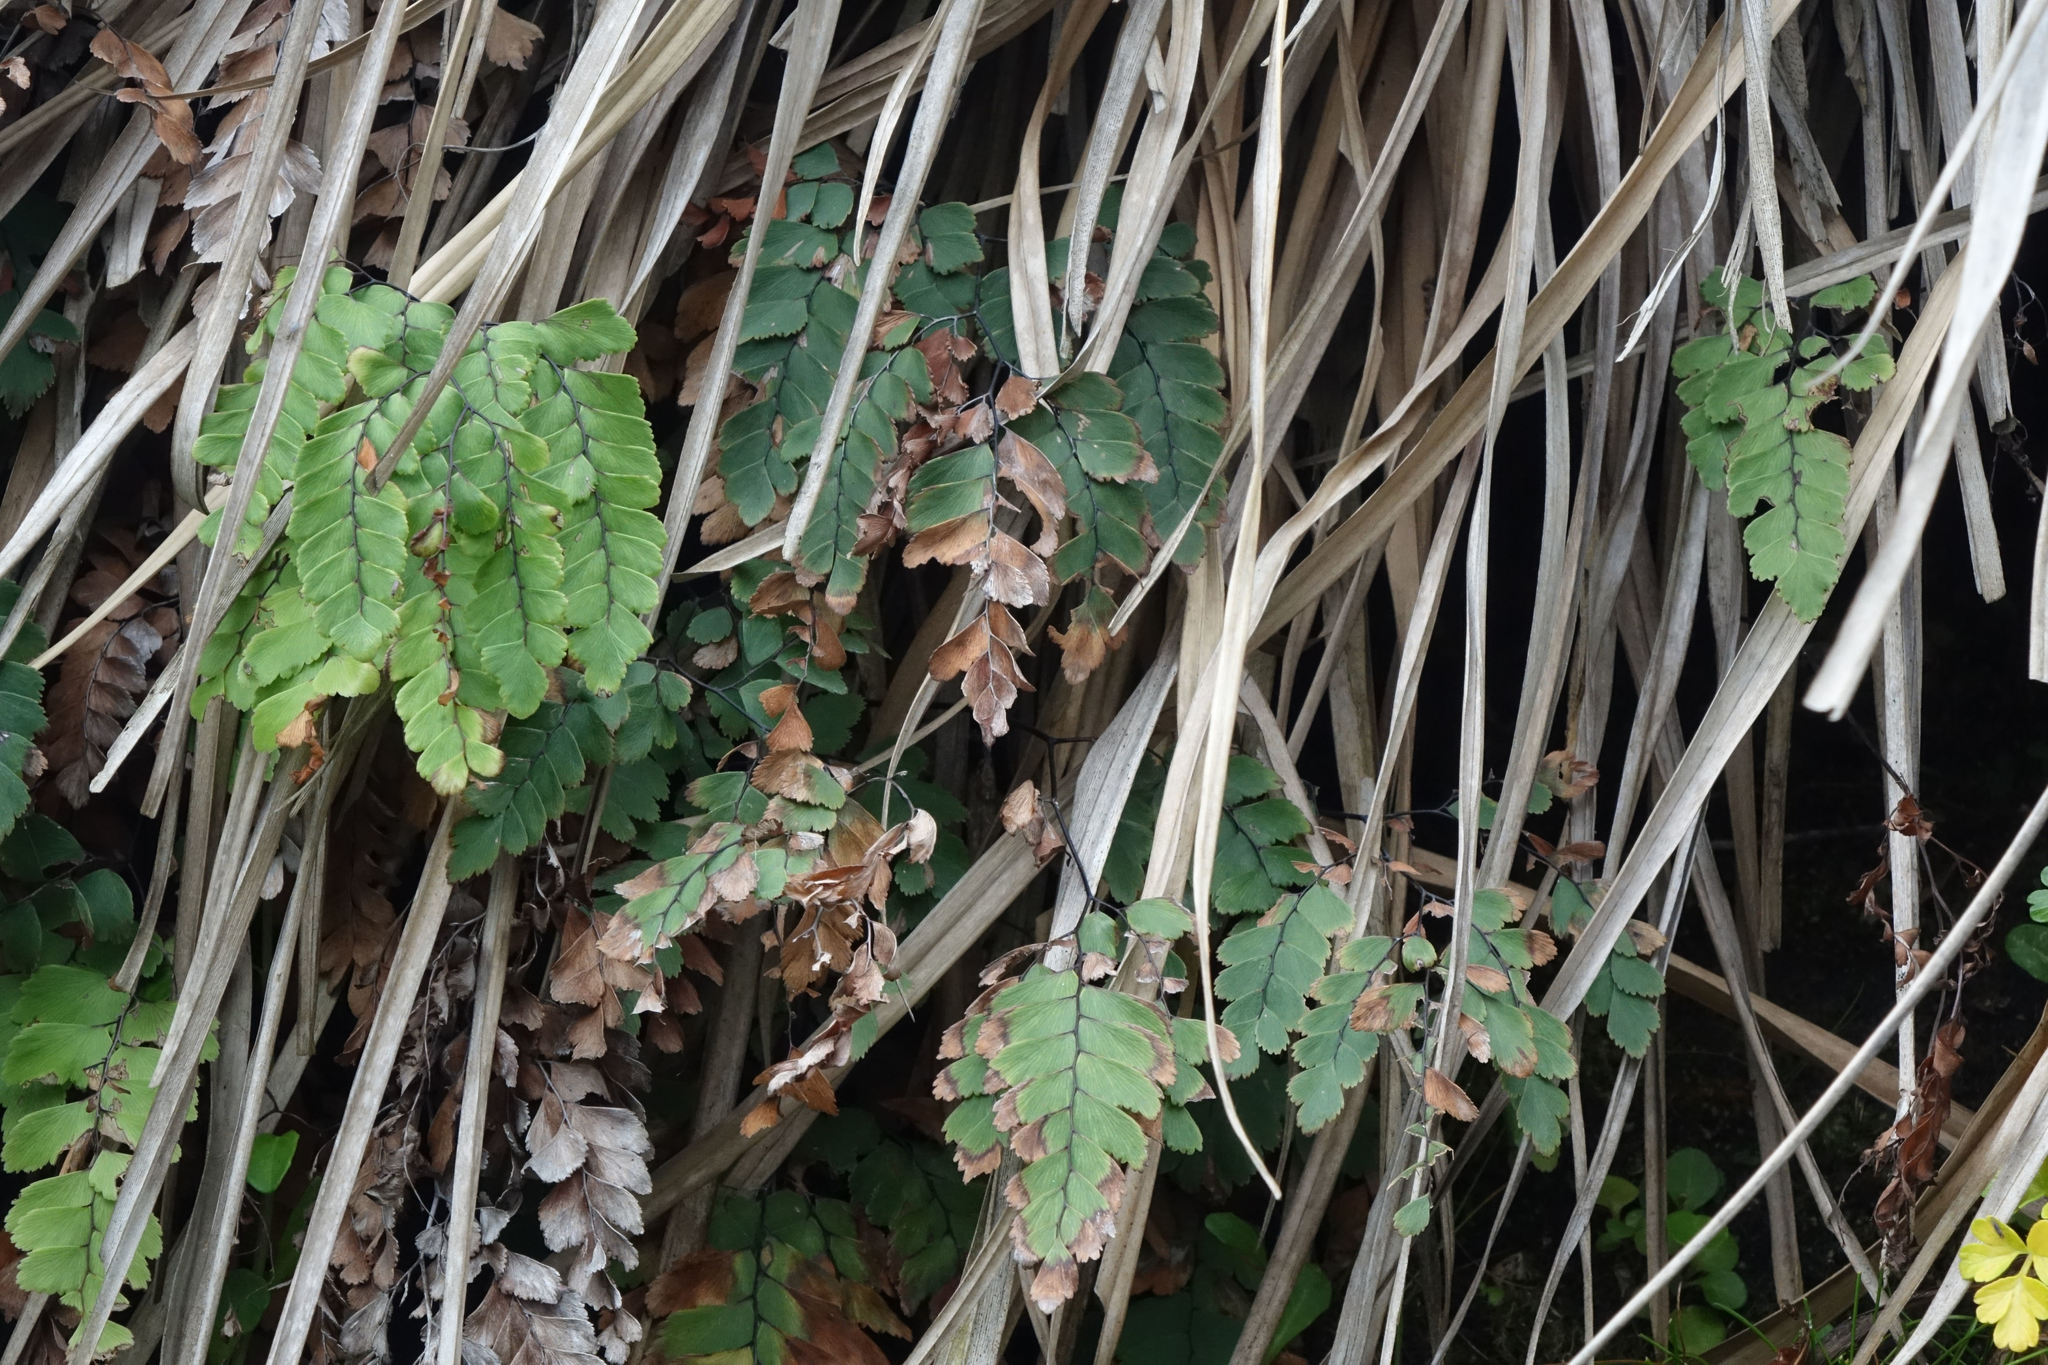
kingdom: Plantae
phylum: Tracheophyta
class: Polypodiopsida
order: Polypodiales
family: Pteridaceae
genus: Adiantum
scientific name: Adiantum cunninghamii
